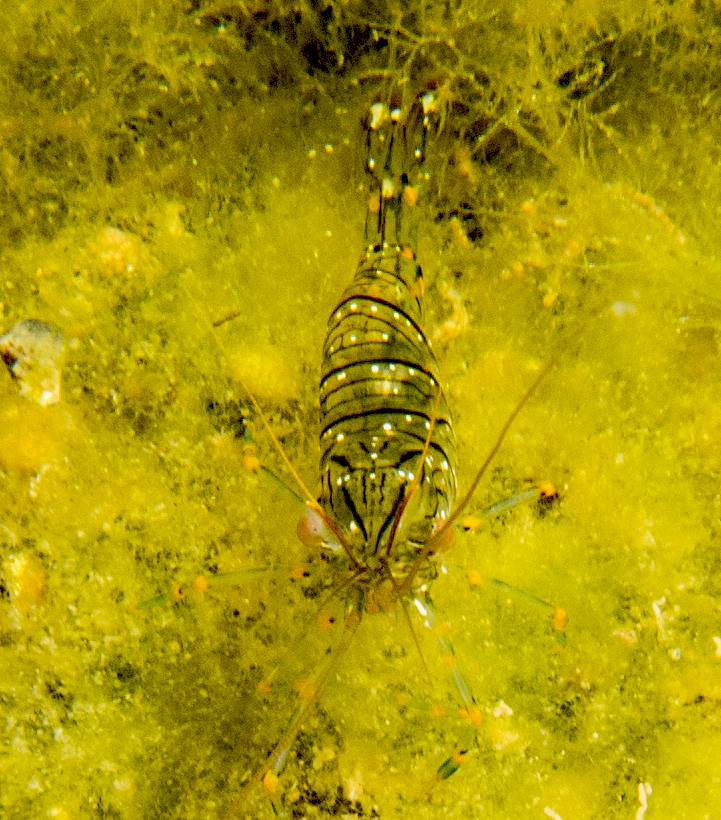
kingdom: Animalia
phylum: Arthropoda
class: Malacostraca
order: Decapoda
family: Palaemonidae
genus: Palaemon
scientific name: Palaemon elegans
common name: Grass prawm
